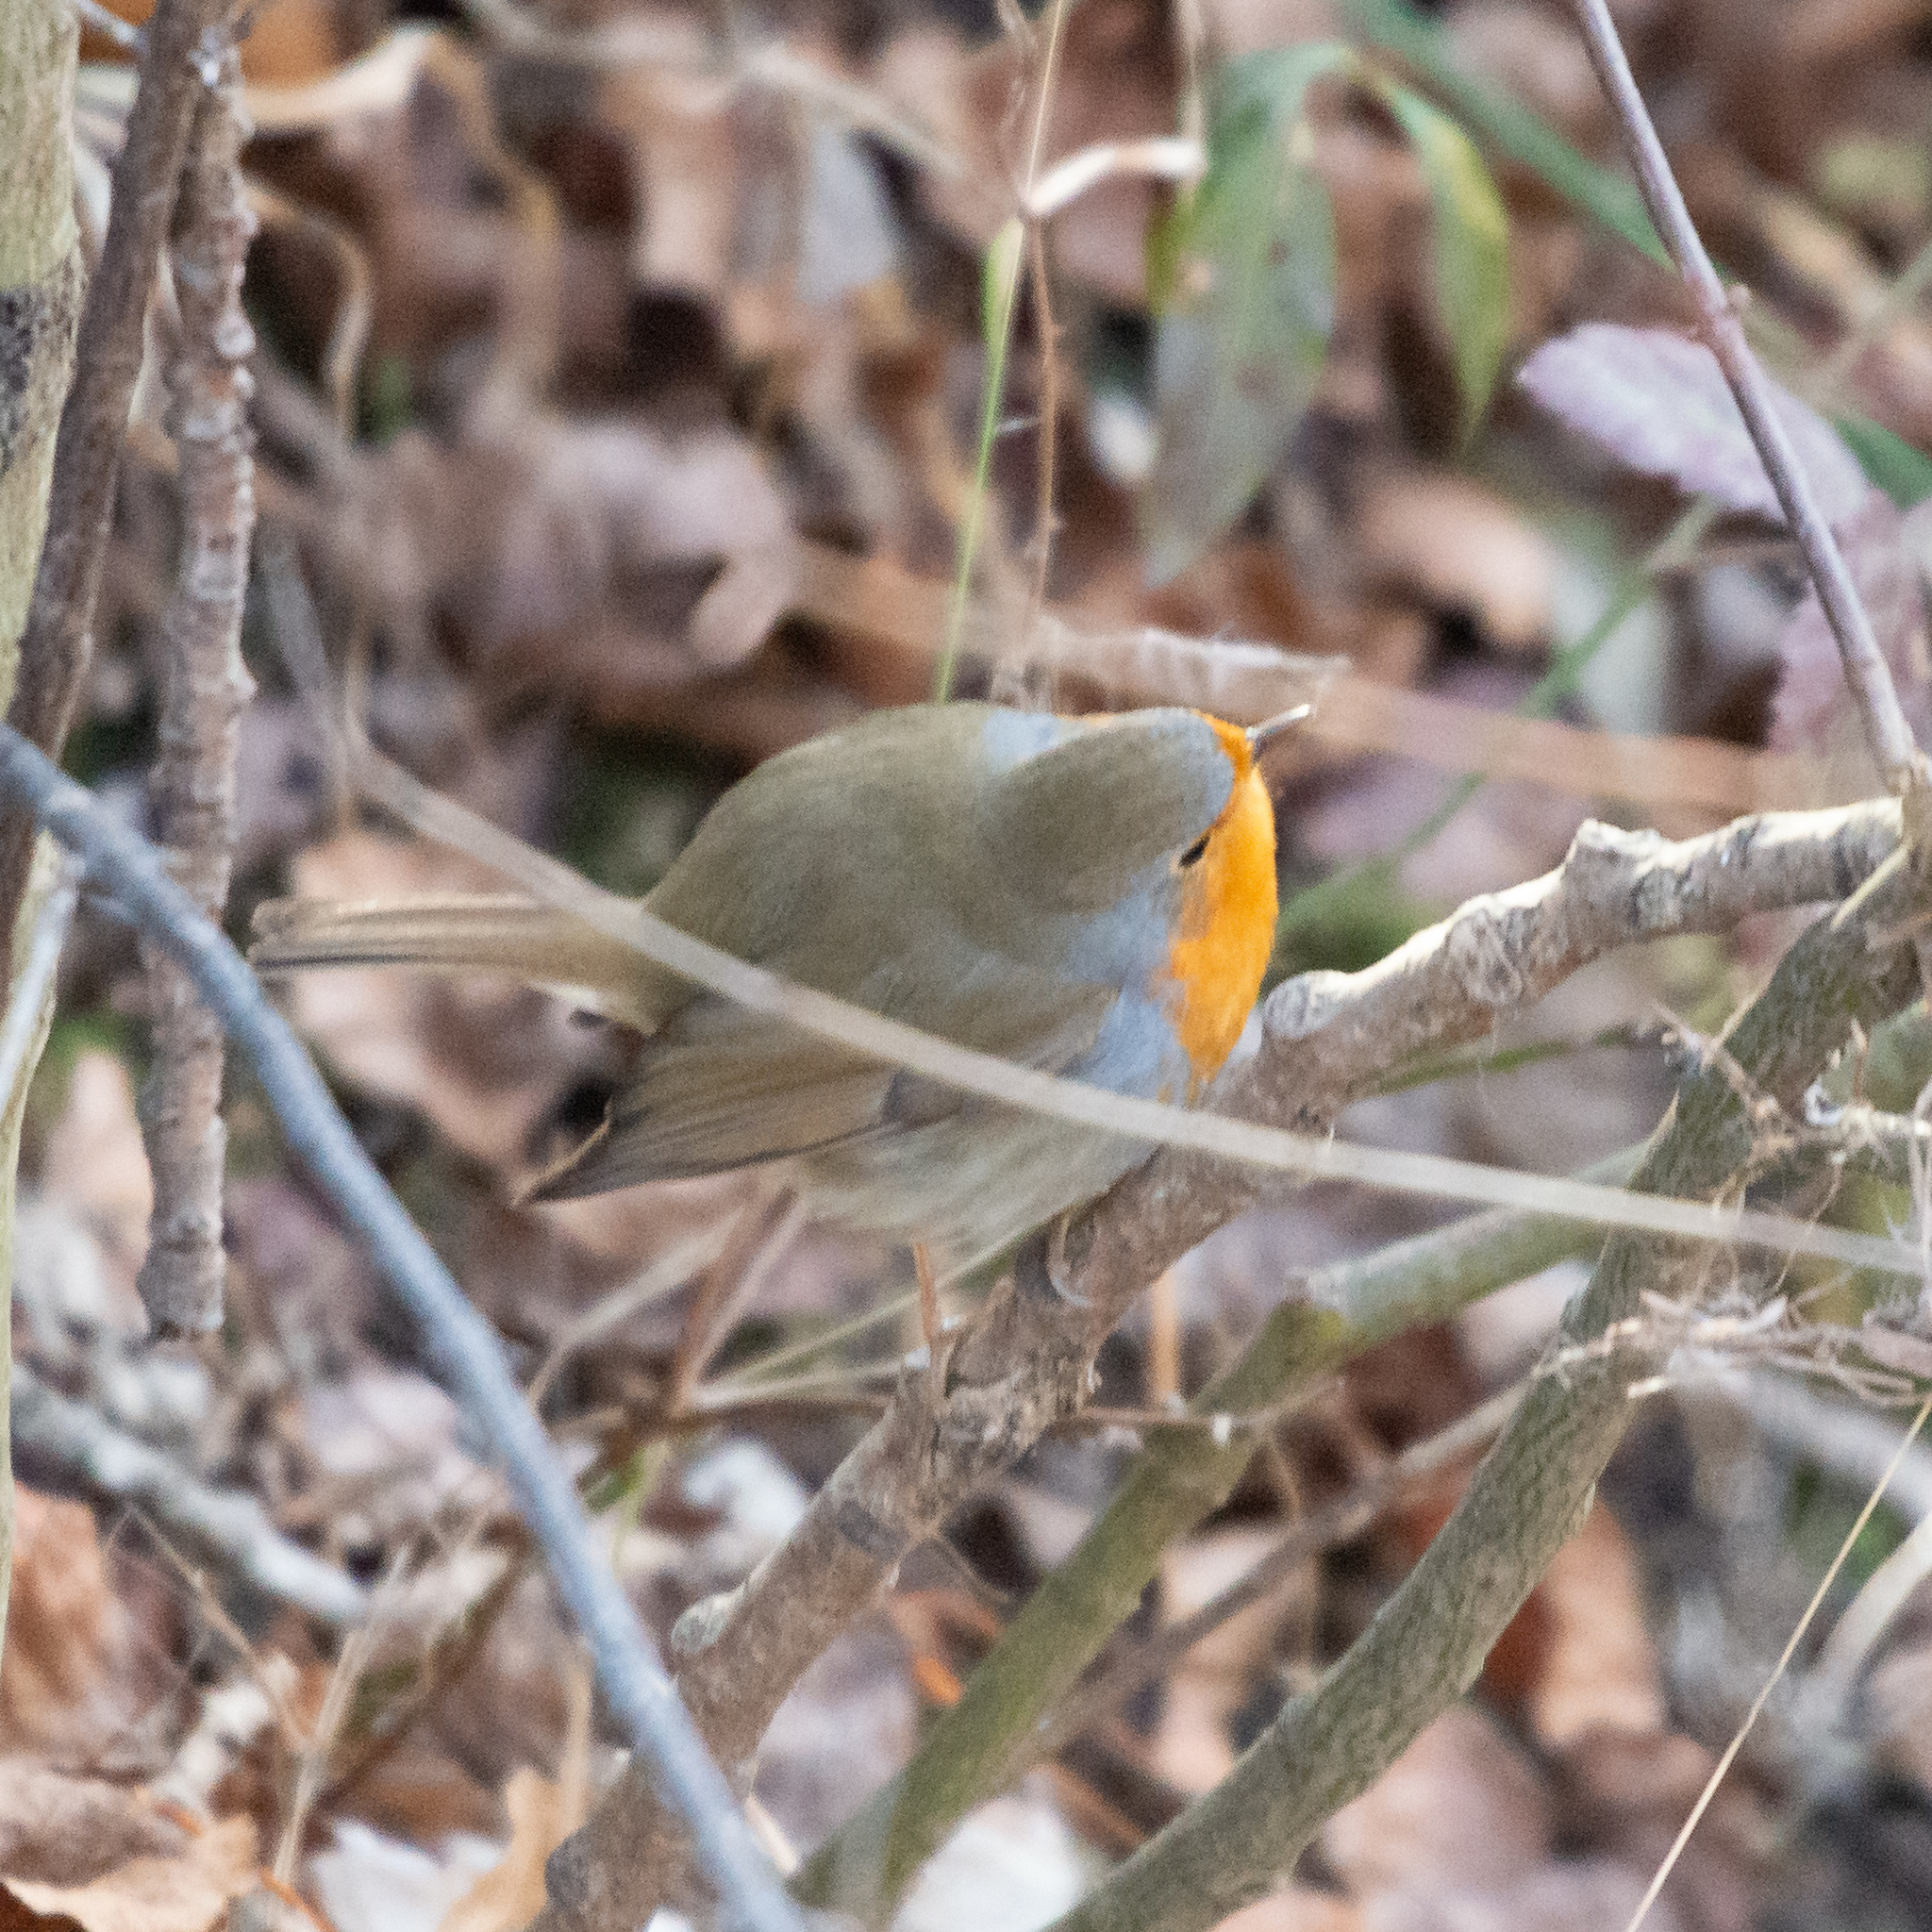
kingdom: Animalia
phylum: Chordata
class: Aves
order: Passeriformes
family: Muscicapidae
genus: Erithacus
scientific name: Erithacus rubecula
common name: European robin
